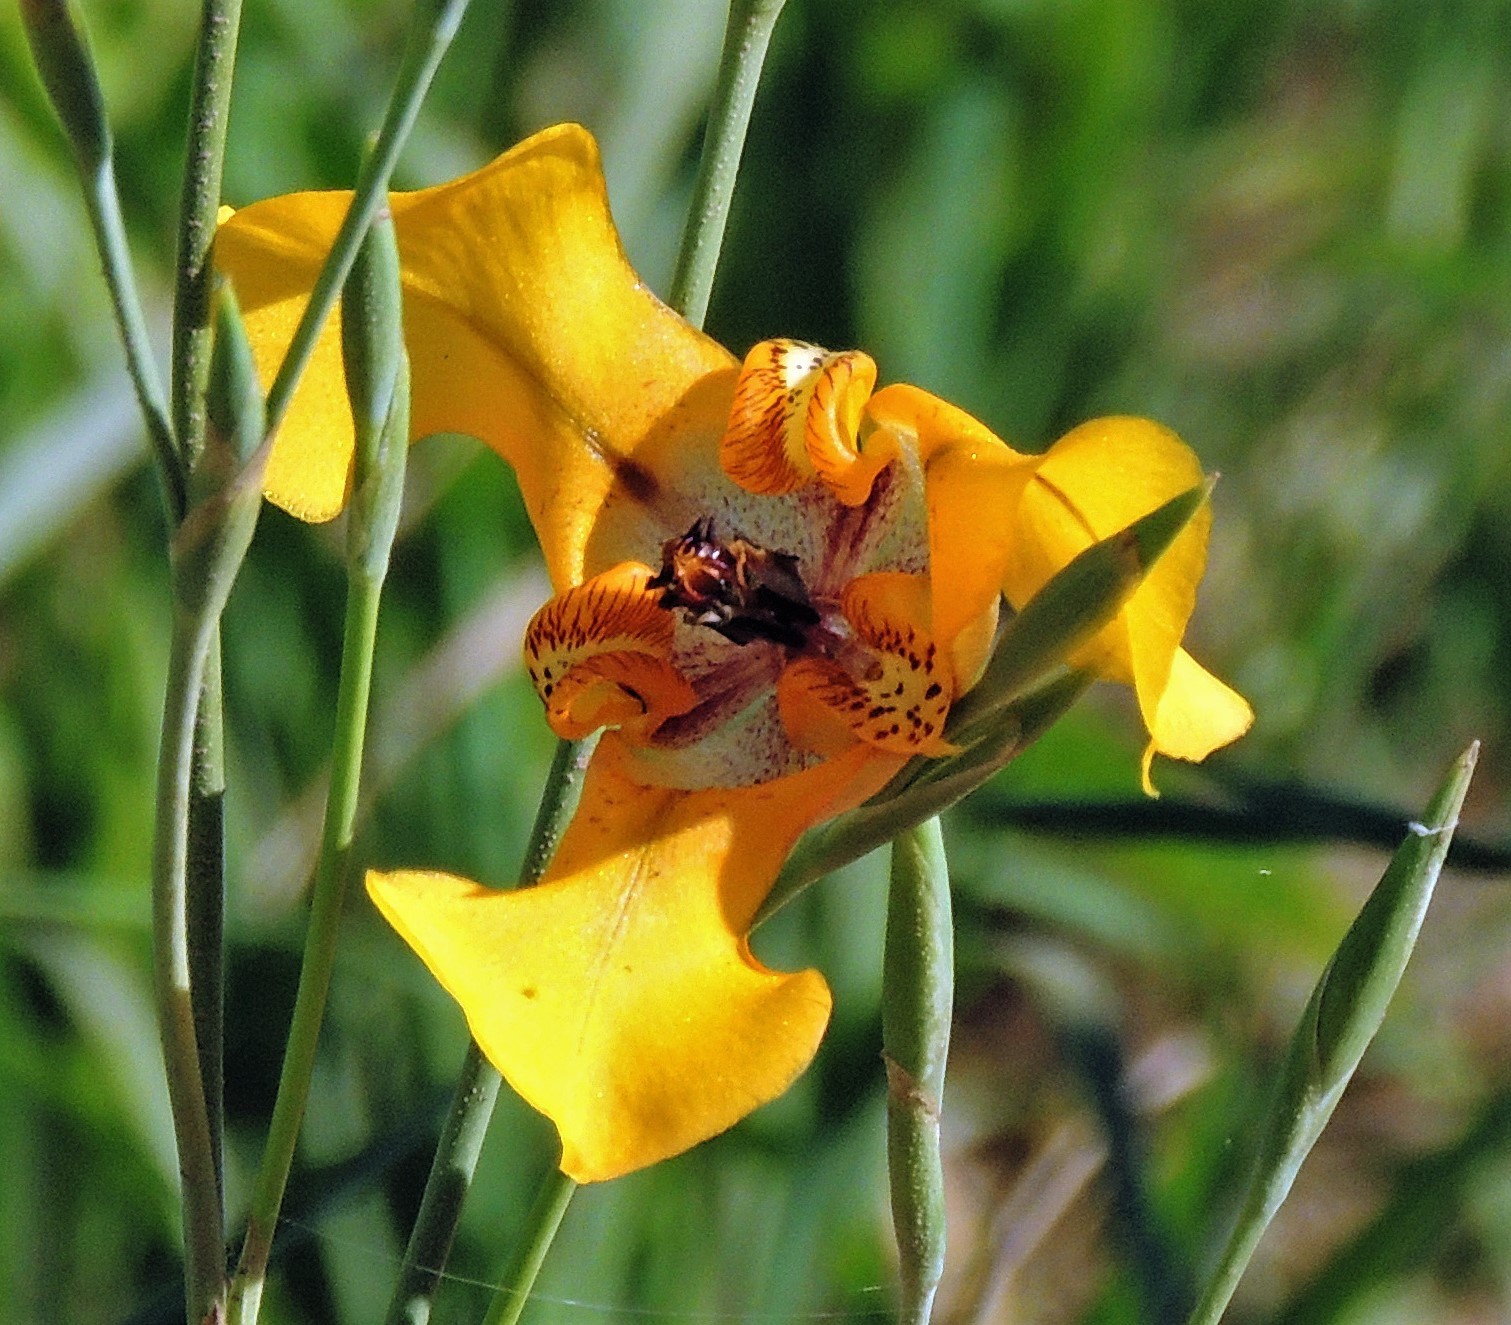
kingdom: Plantae
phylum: Tracheophyta
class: Liliopsida
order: Asparagales
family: Iridaceae
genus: Cypella
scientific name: Cypella herbertii
